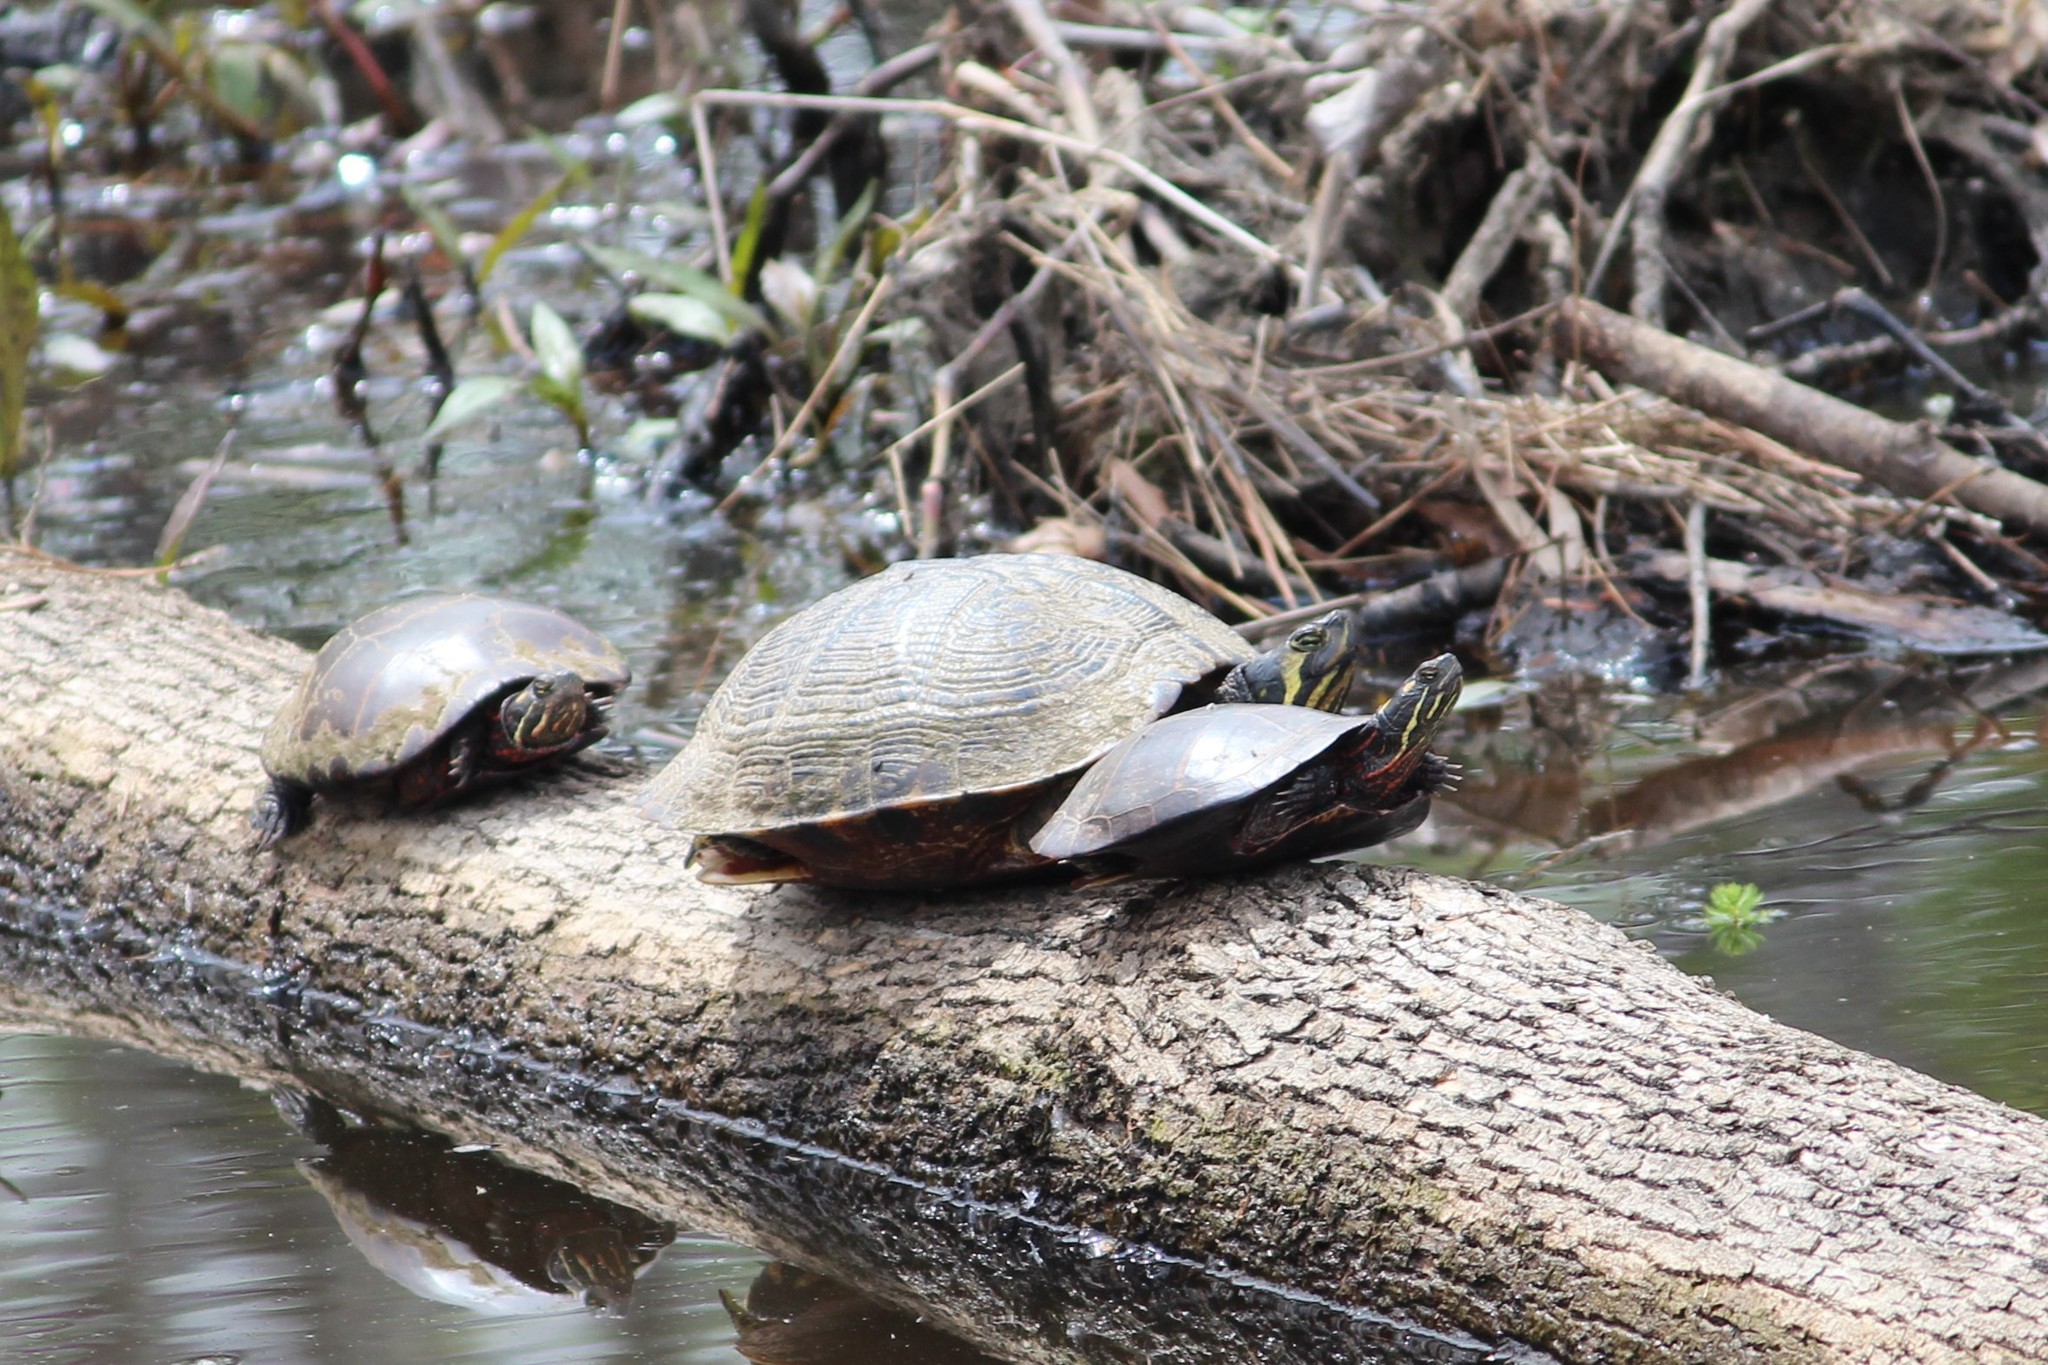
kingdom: Animalia
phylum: Chordata
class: Testudines
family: Emydidae
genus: Trachemys
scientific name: Trachemys scripta
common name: Slider
